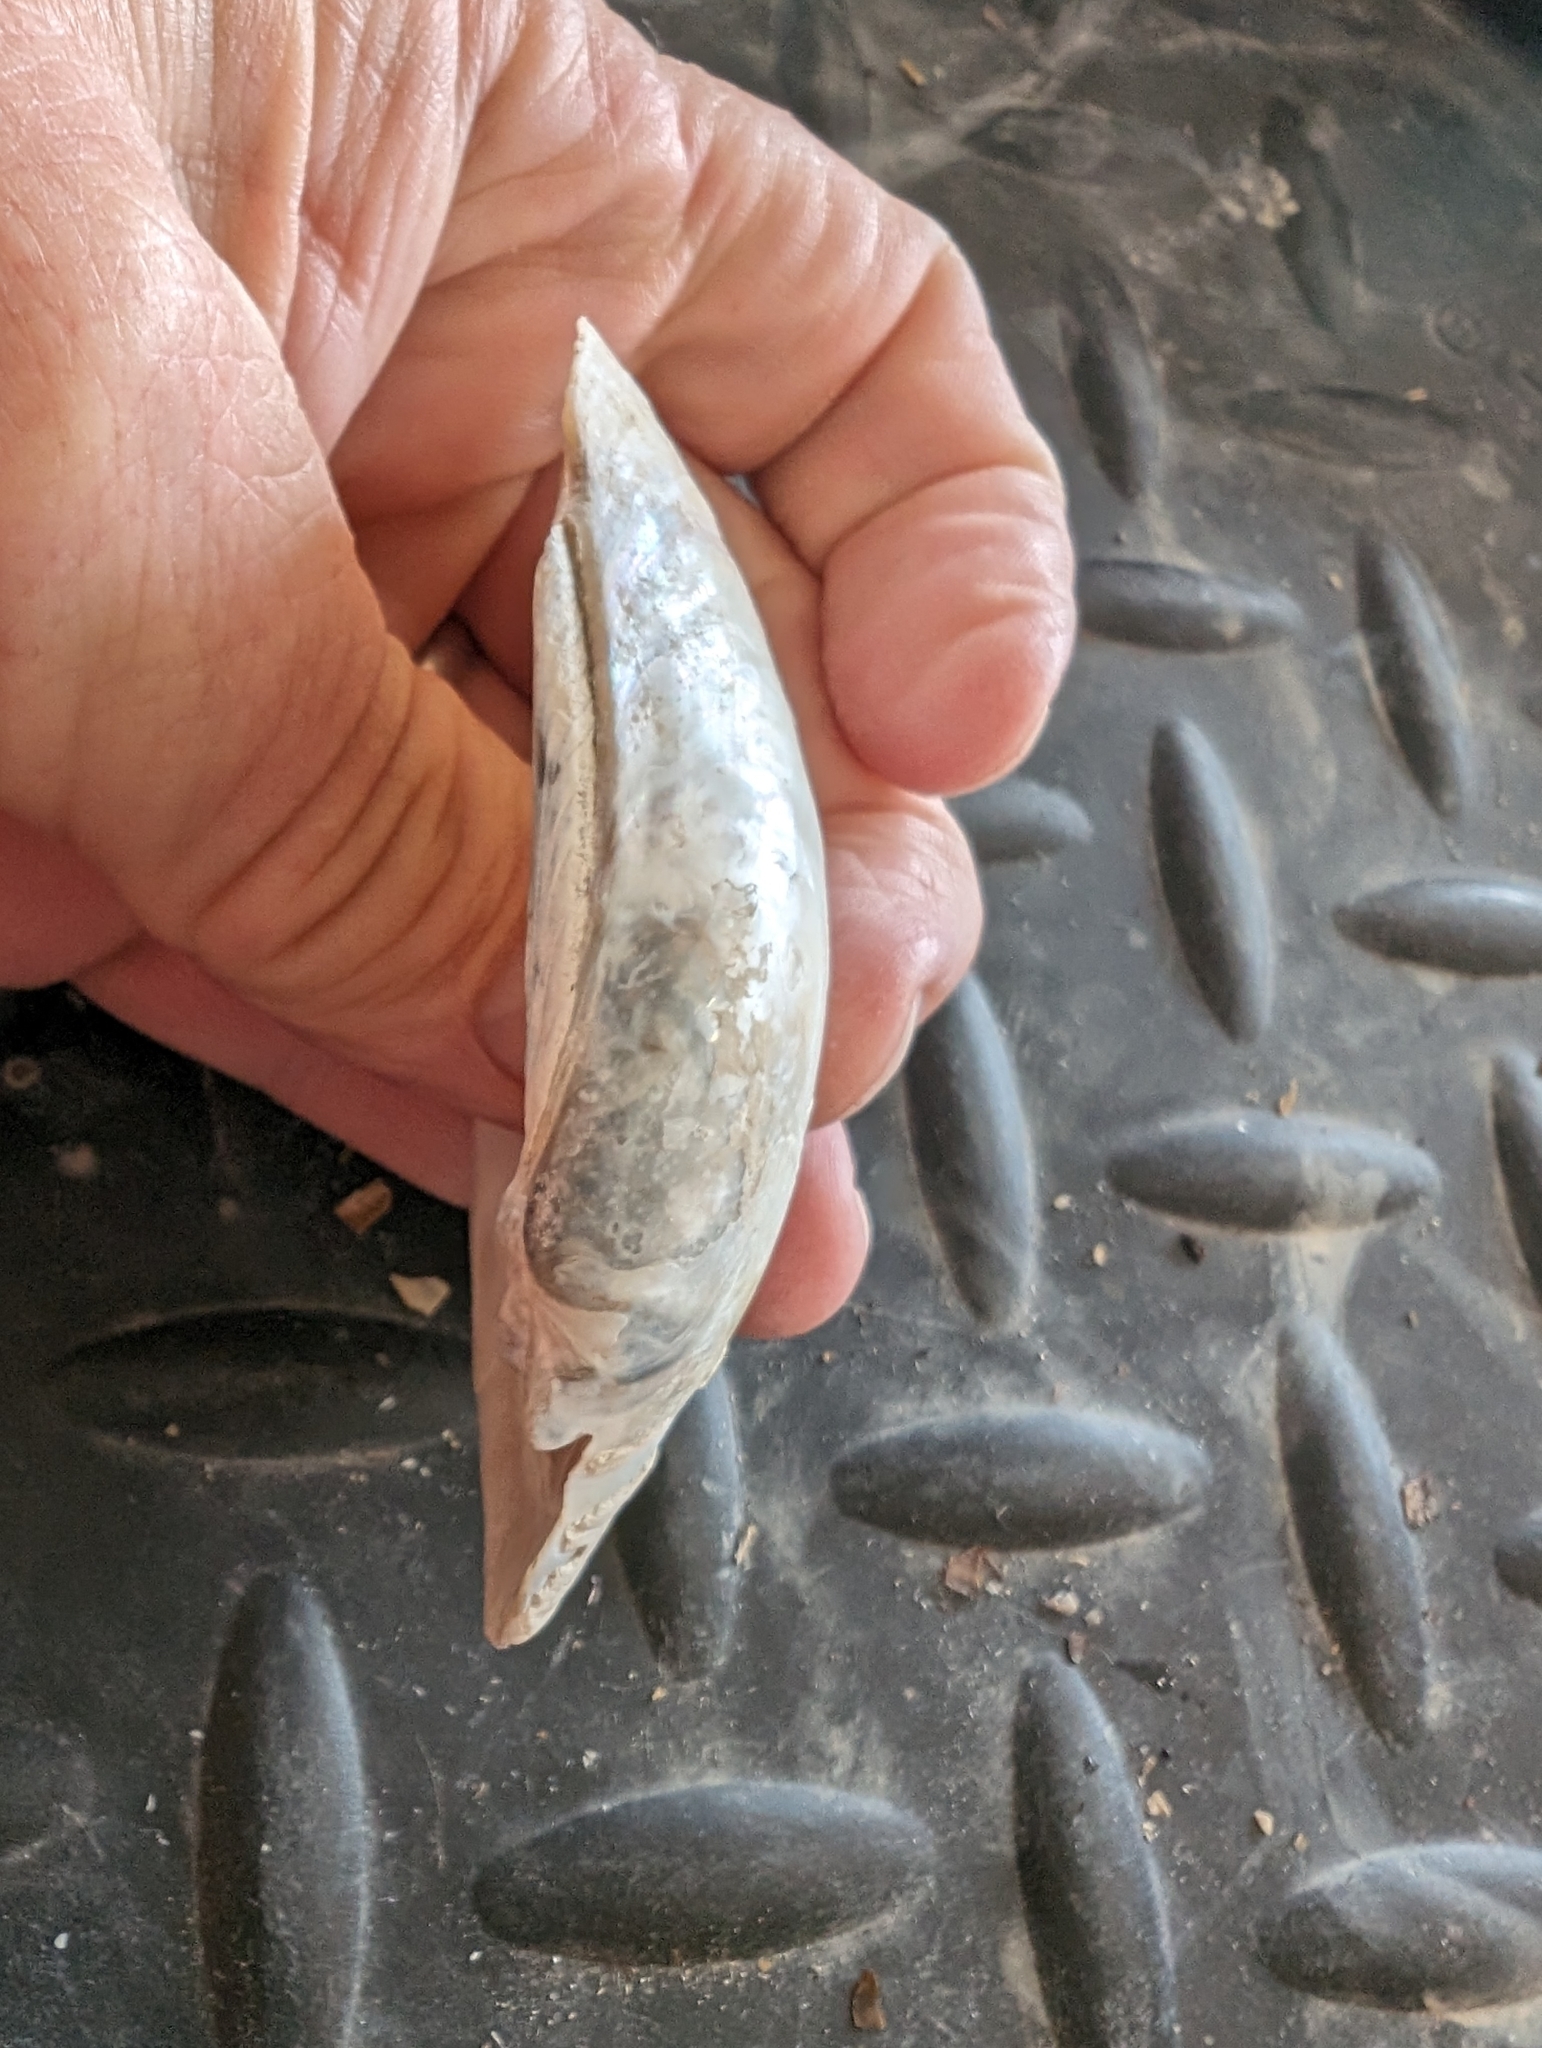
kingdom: Animalia
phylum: Mollusca
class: Bivalvia
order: Unionida
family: Unionidae
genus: Lampsilis
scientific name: Lampsilis cardium
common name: Plain pocketbook
